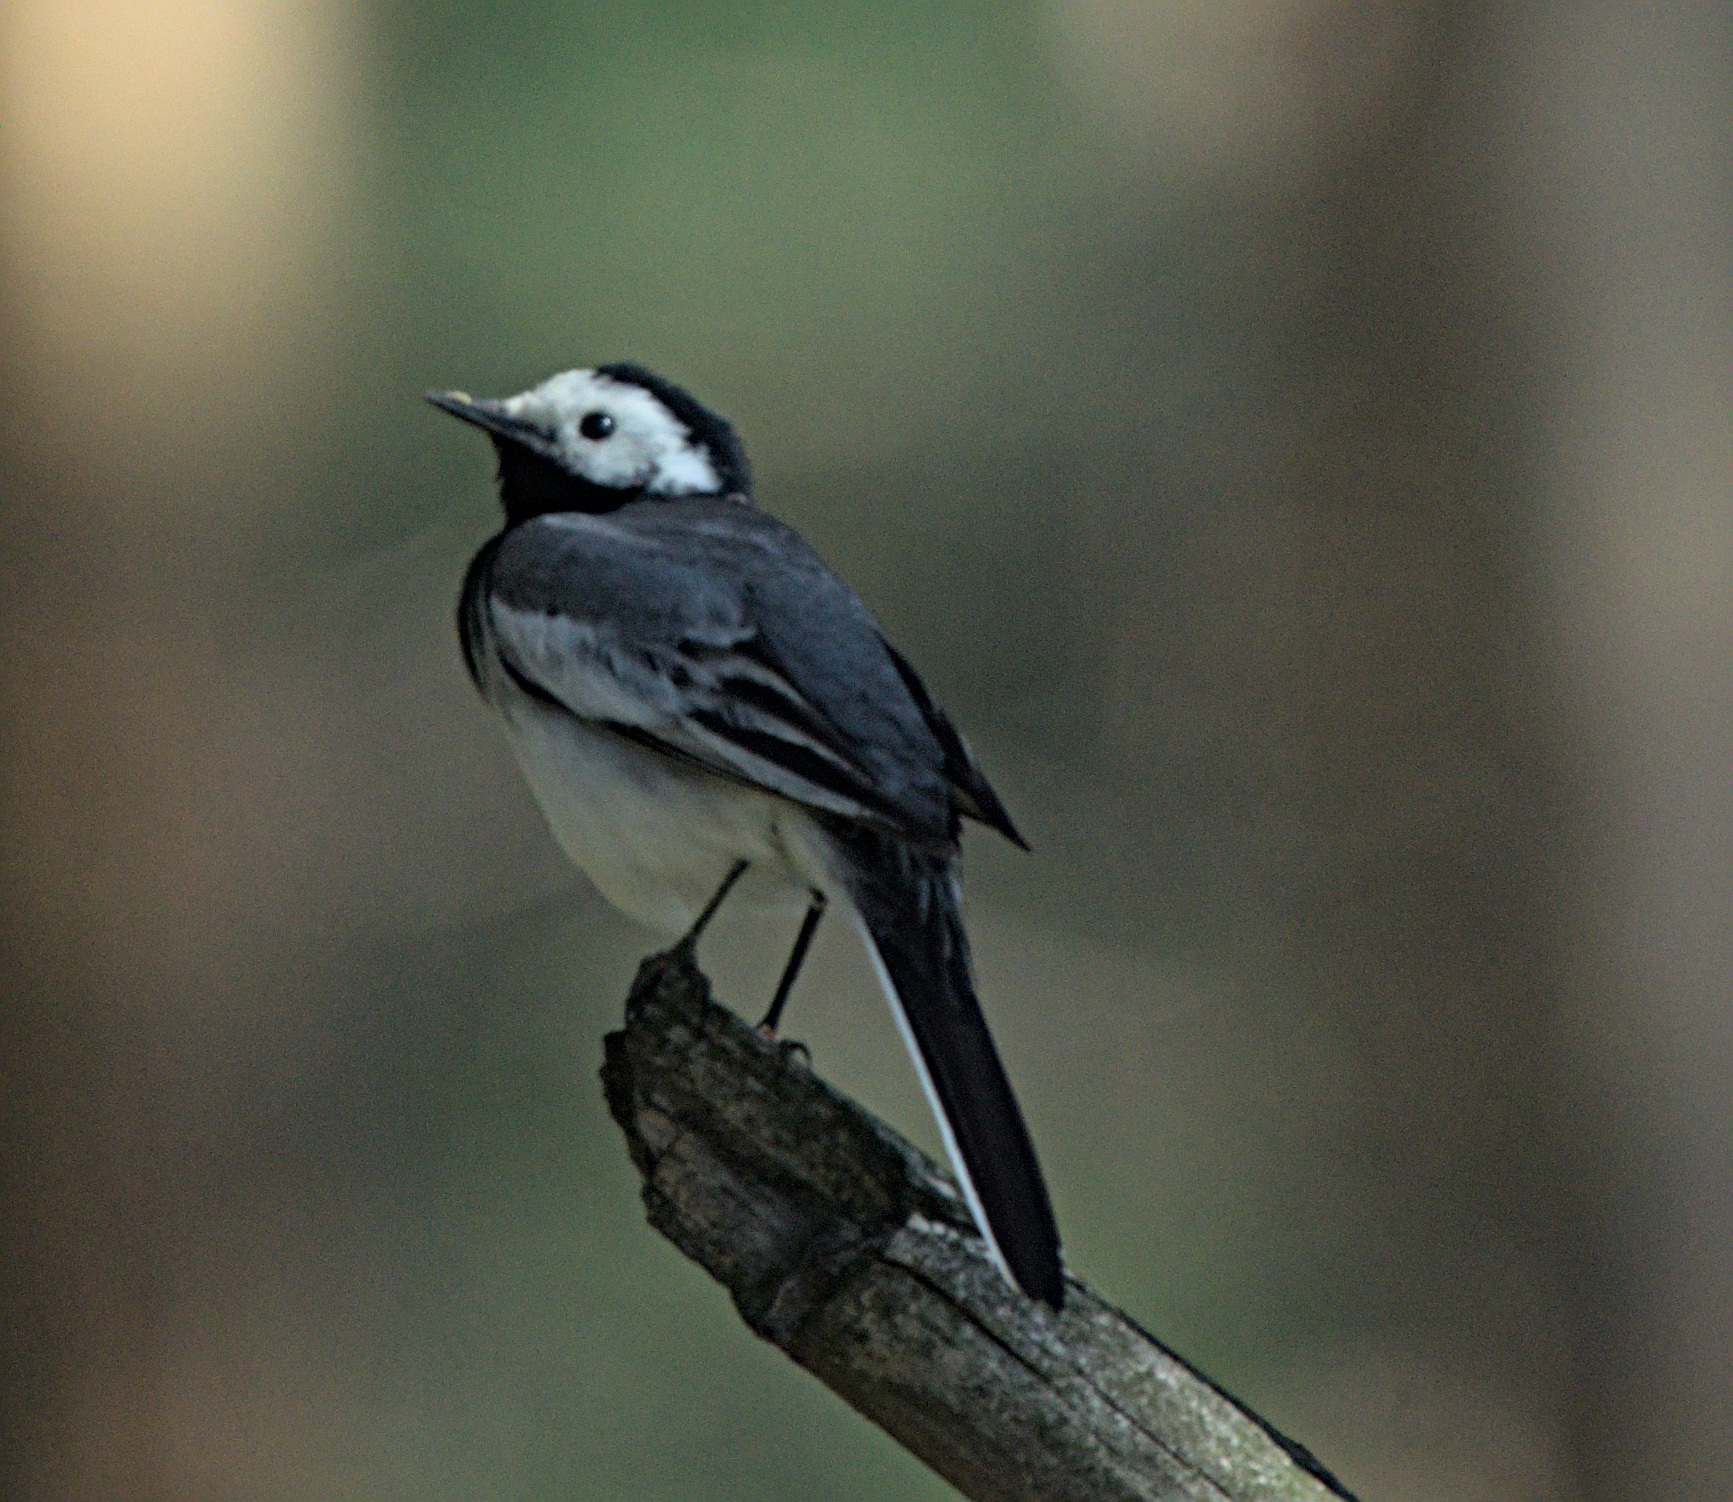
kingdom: Animalia
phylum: Chordata
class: Aves
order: Passeriformes
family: Motacillidae
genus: Motacilla
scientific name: Motacilla alba
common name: White wagtail
